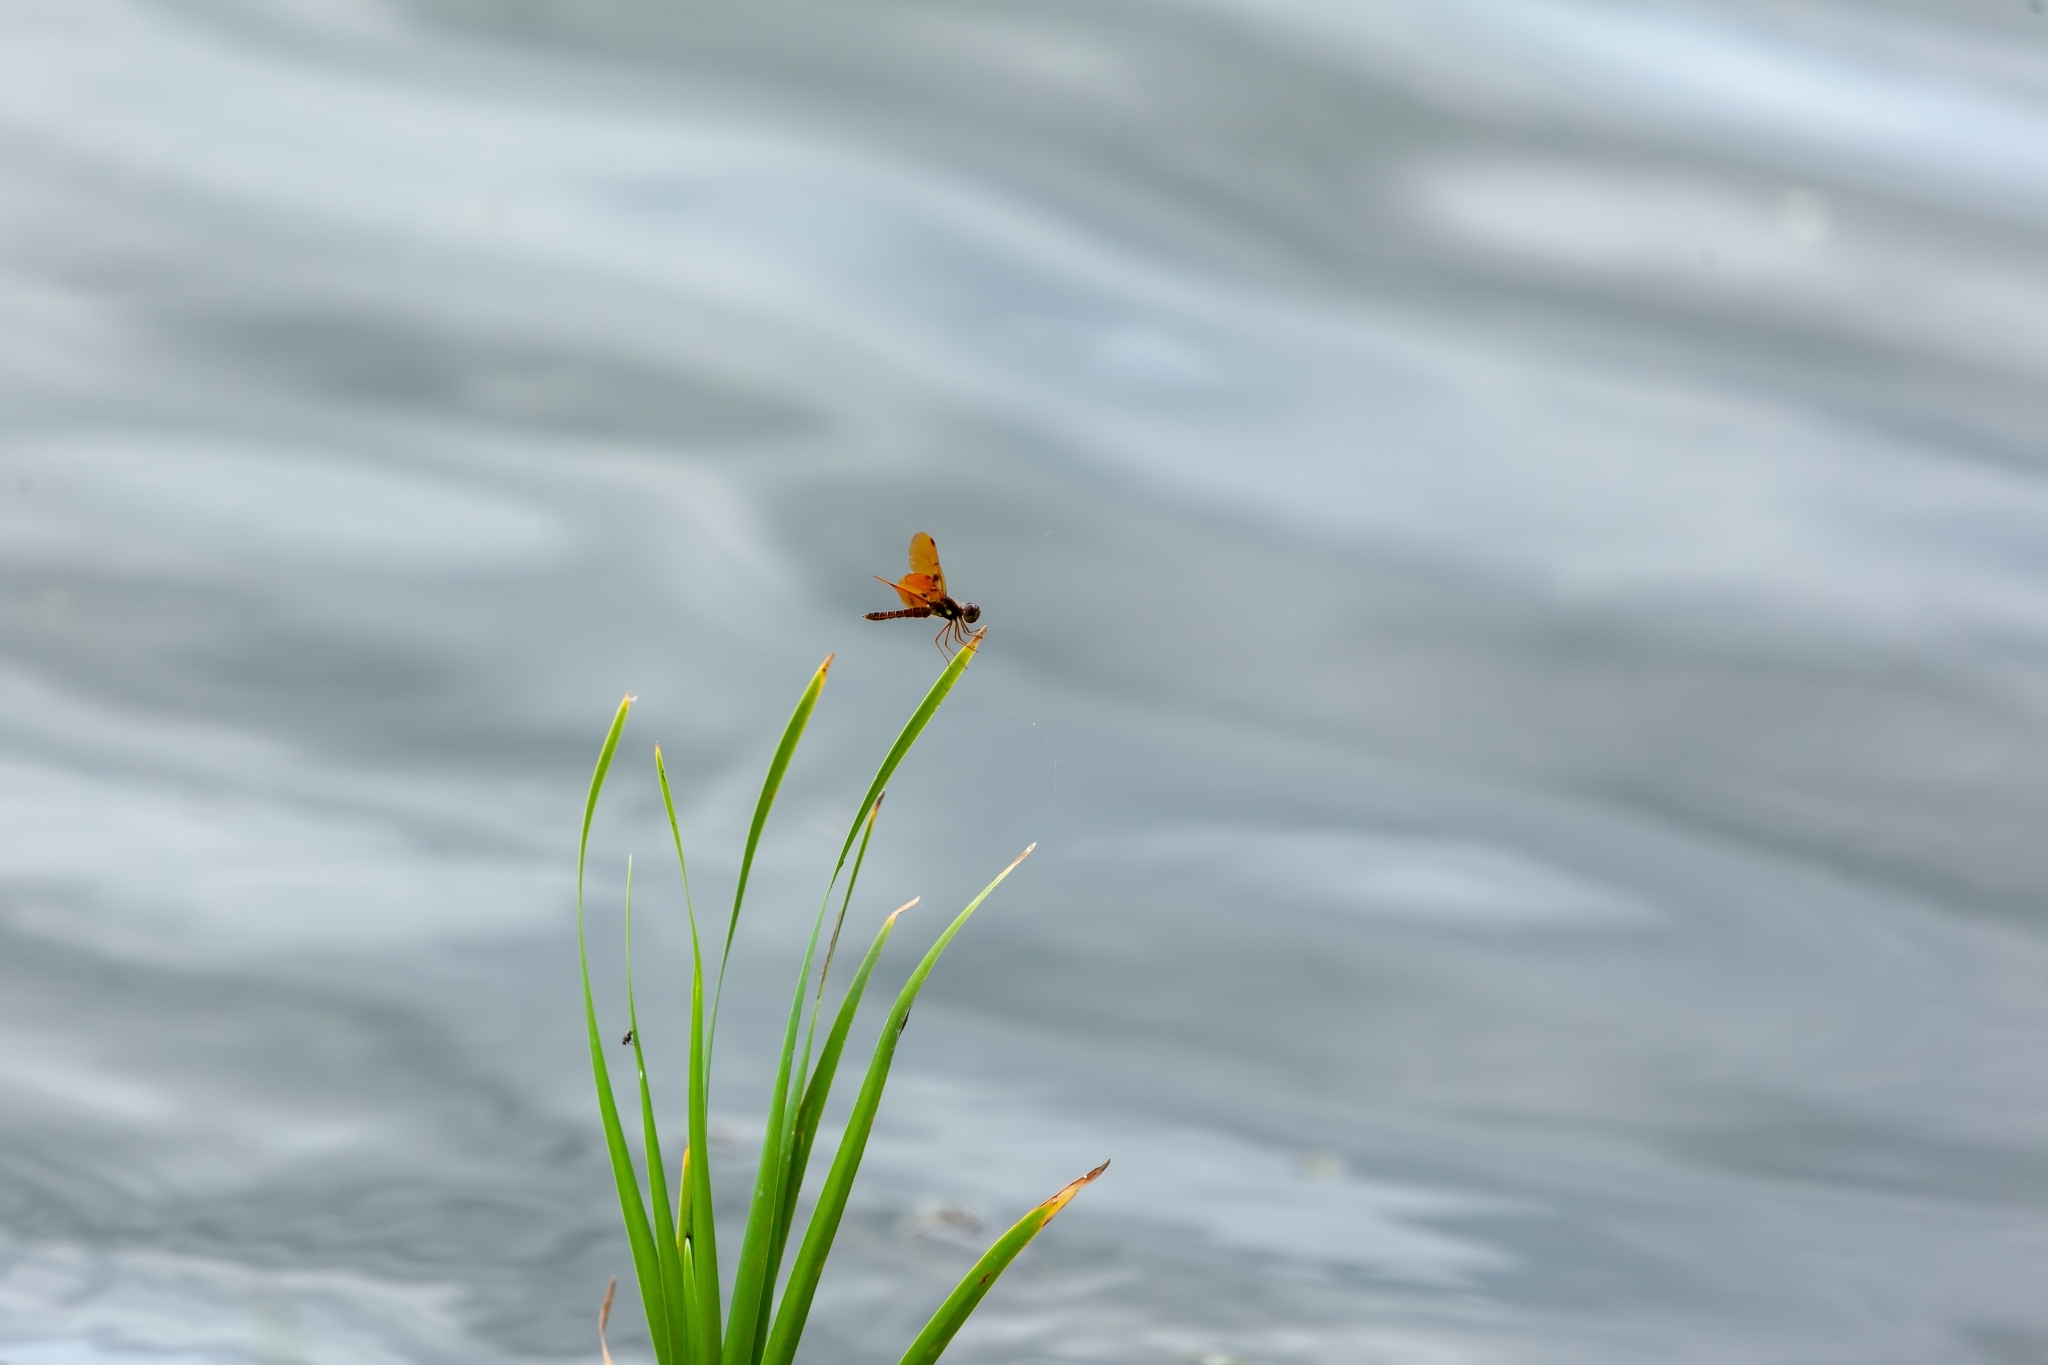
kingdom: Animalia
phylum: Arthropoda
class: Insecta
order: Odonata
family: Libellulidae
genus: Perithemis
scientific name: Perithemis tenera
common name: Eastern amberwing
